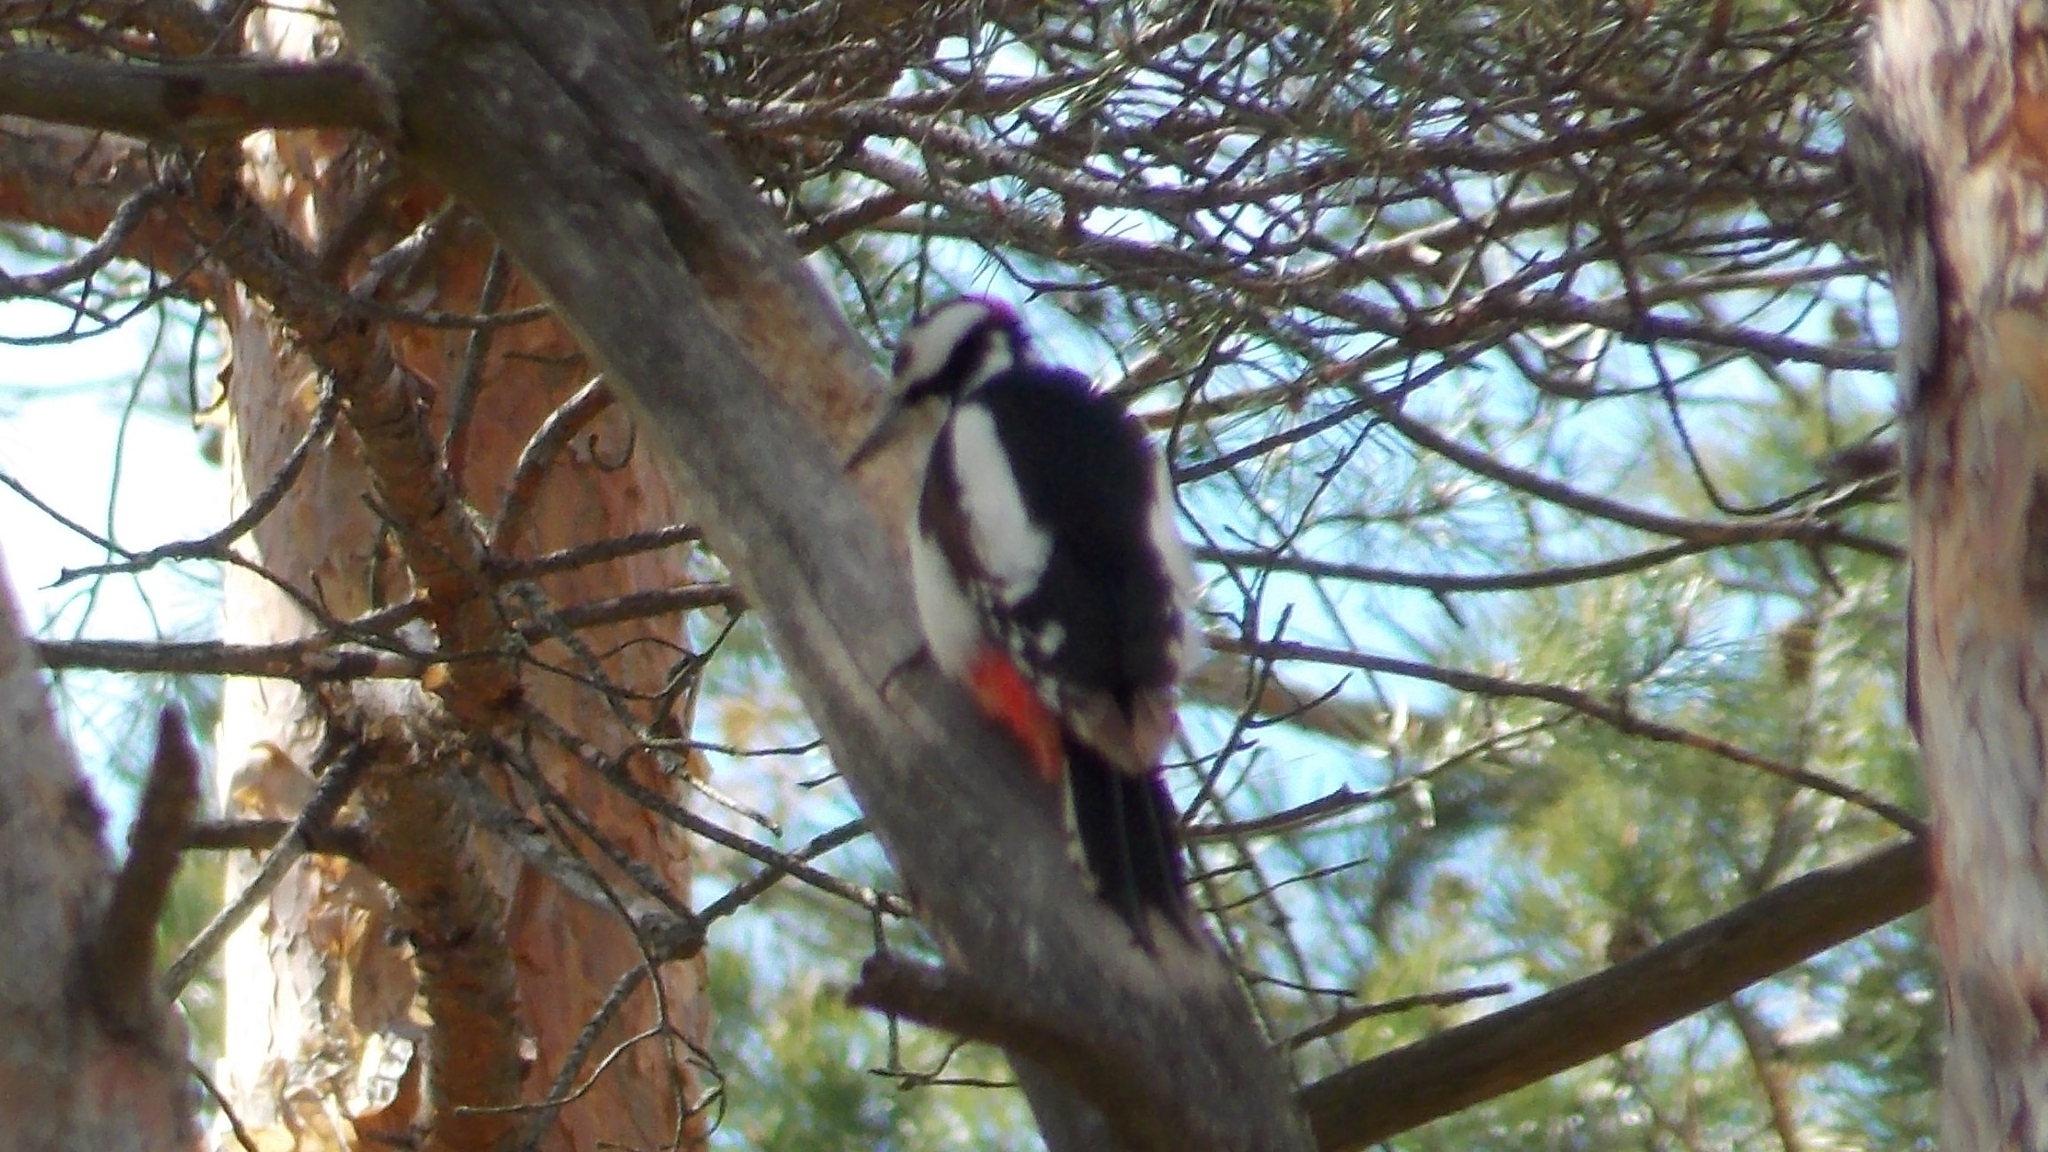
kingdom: Animalia
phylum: Chordata
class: Aves
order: Piciformes
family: Picidae
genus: Dendrocopos
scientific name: Dendrocopos major
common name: Great spotted woodpecker
